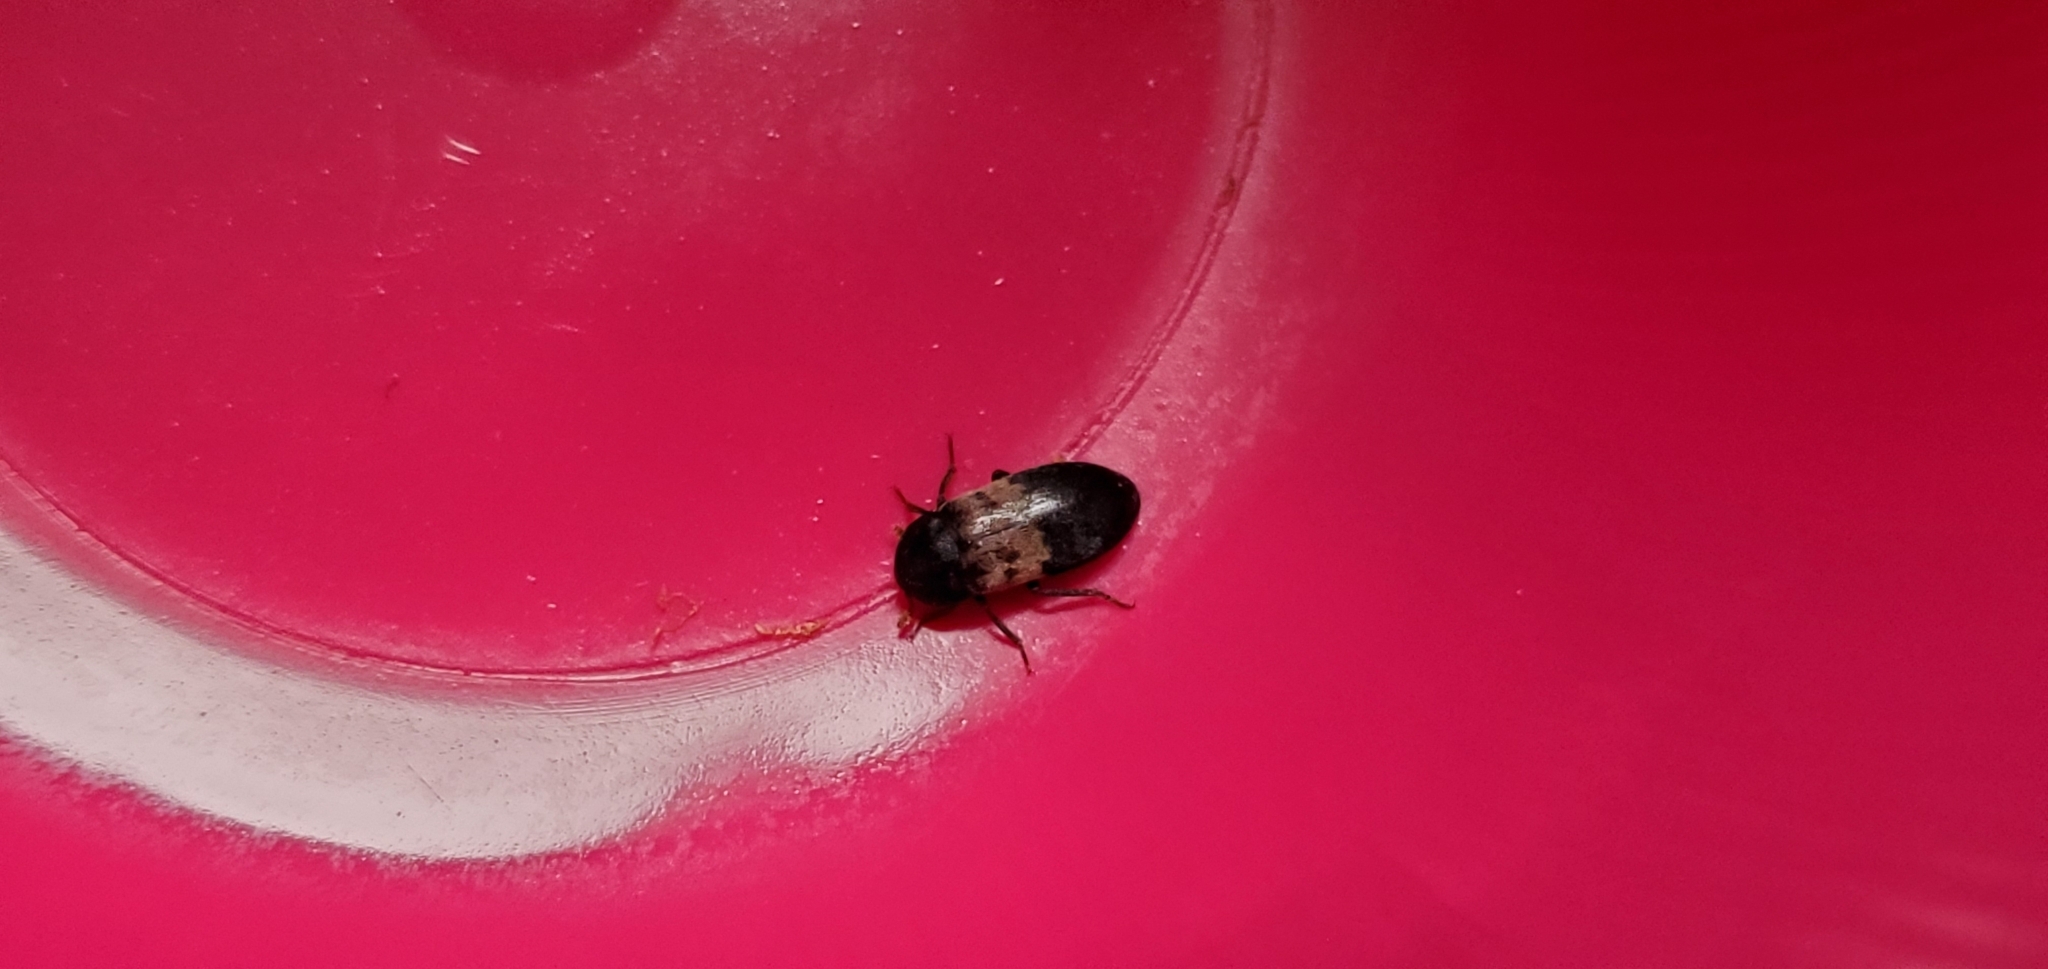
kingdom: Animalia
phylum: Arthropoda
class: Insecta
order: Coleoptera
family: Dermestidae
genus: Dermestes
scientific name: Dermestes lardarius
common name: Larder beetle
